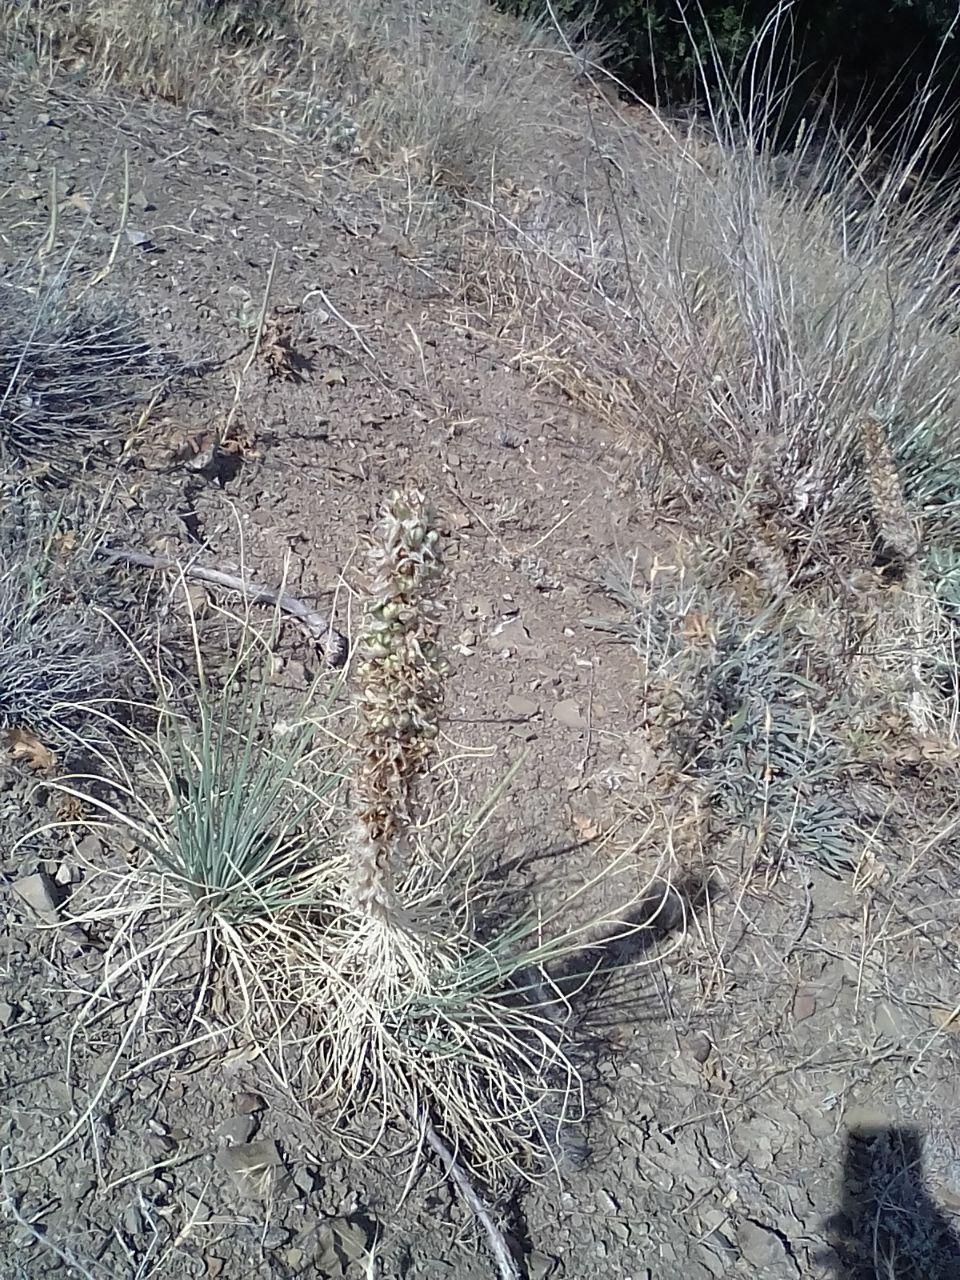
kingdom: Plantae
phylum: Tracheophyta
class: Liliopsida
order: Asparagales
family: Asphodelaceae
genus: Asphodeline
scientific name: Asphodeline taurica
